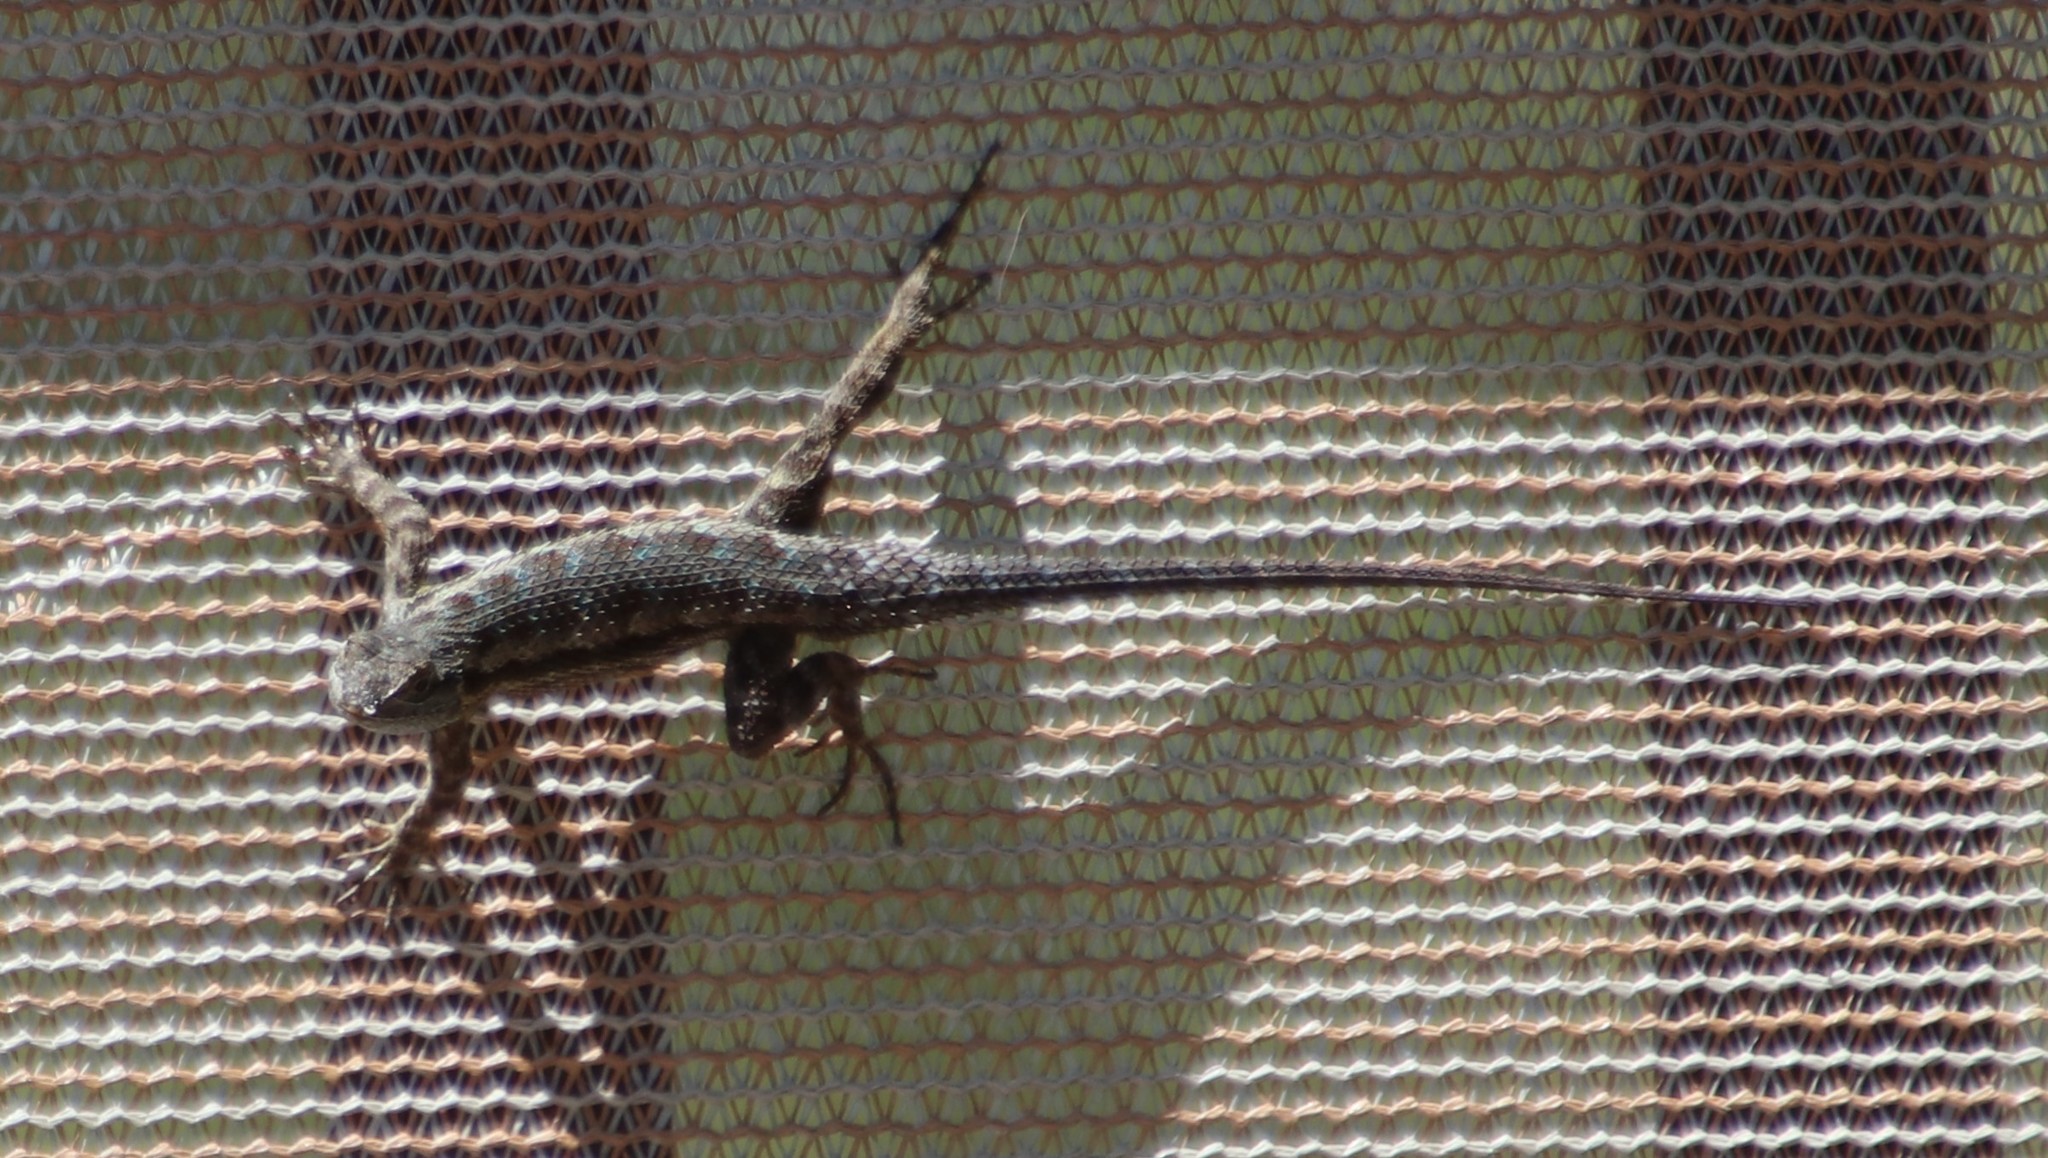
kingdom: Animalia
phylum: Chordata
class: Squamata
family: Phrynosomatidae
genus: Sceloporus
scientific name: Sceloporus occidentalis
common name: Western fence lizard
